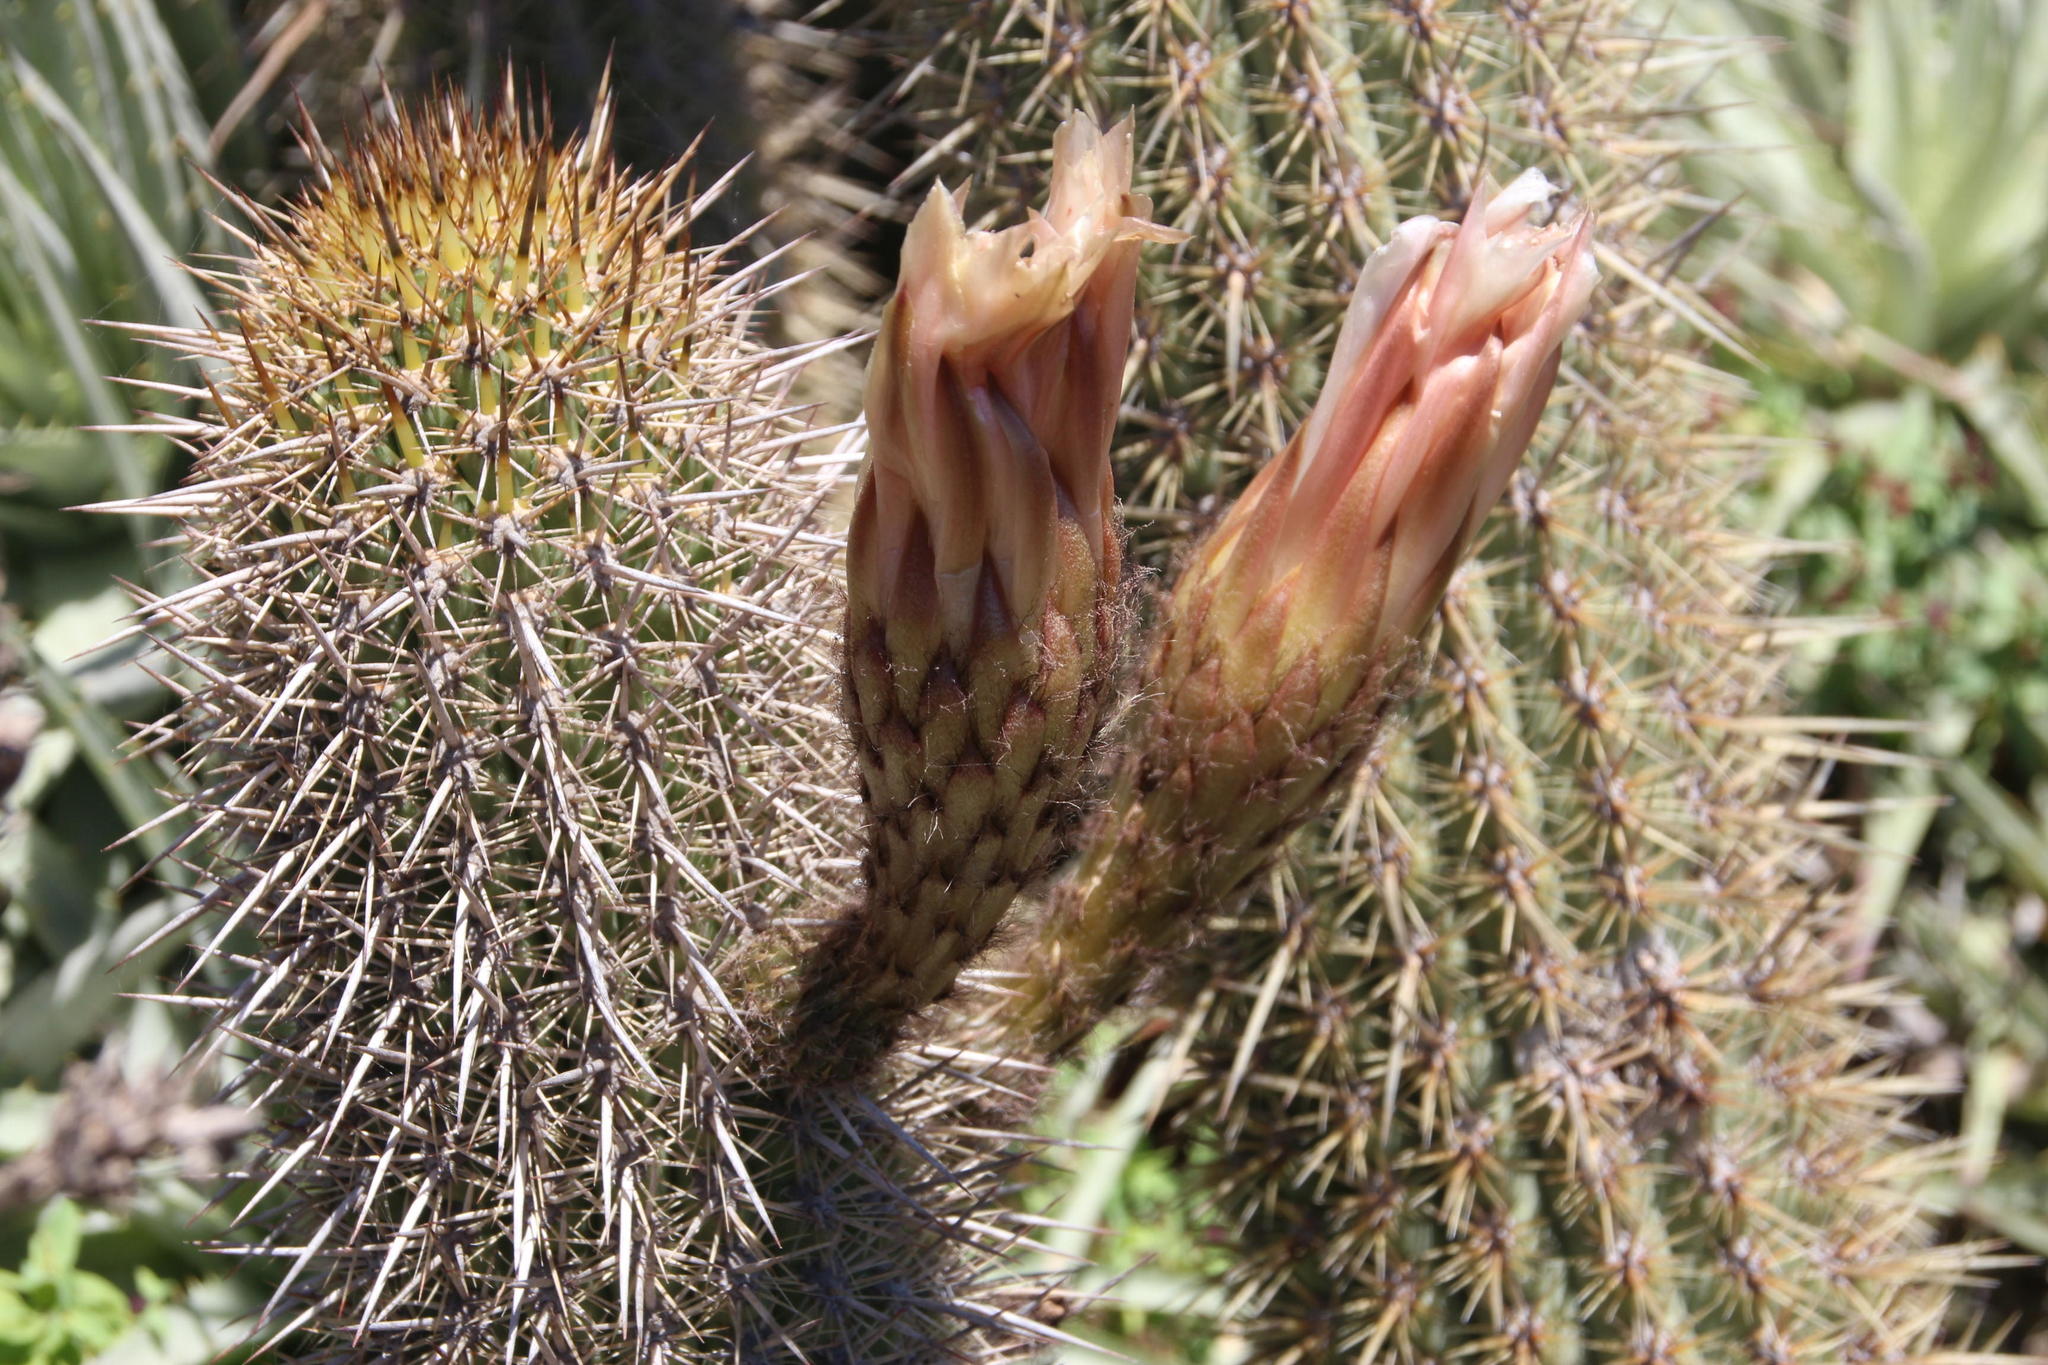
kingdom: Plantae
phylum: Tracheophyta
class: Magnoliopsida
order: Caryophyllales
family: Cactaceae
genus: Leucostele
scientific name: Leucostele litoralis
